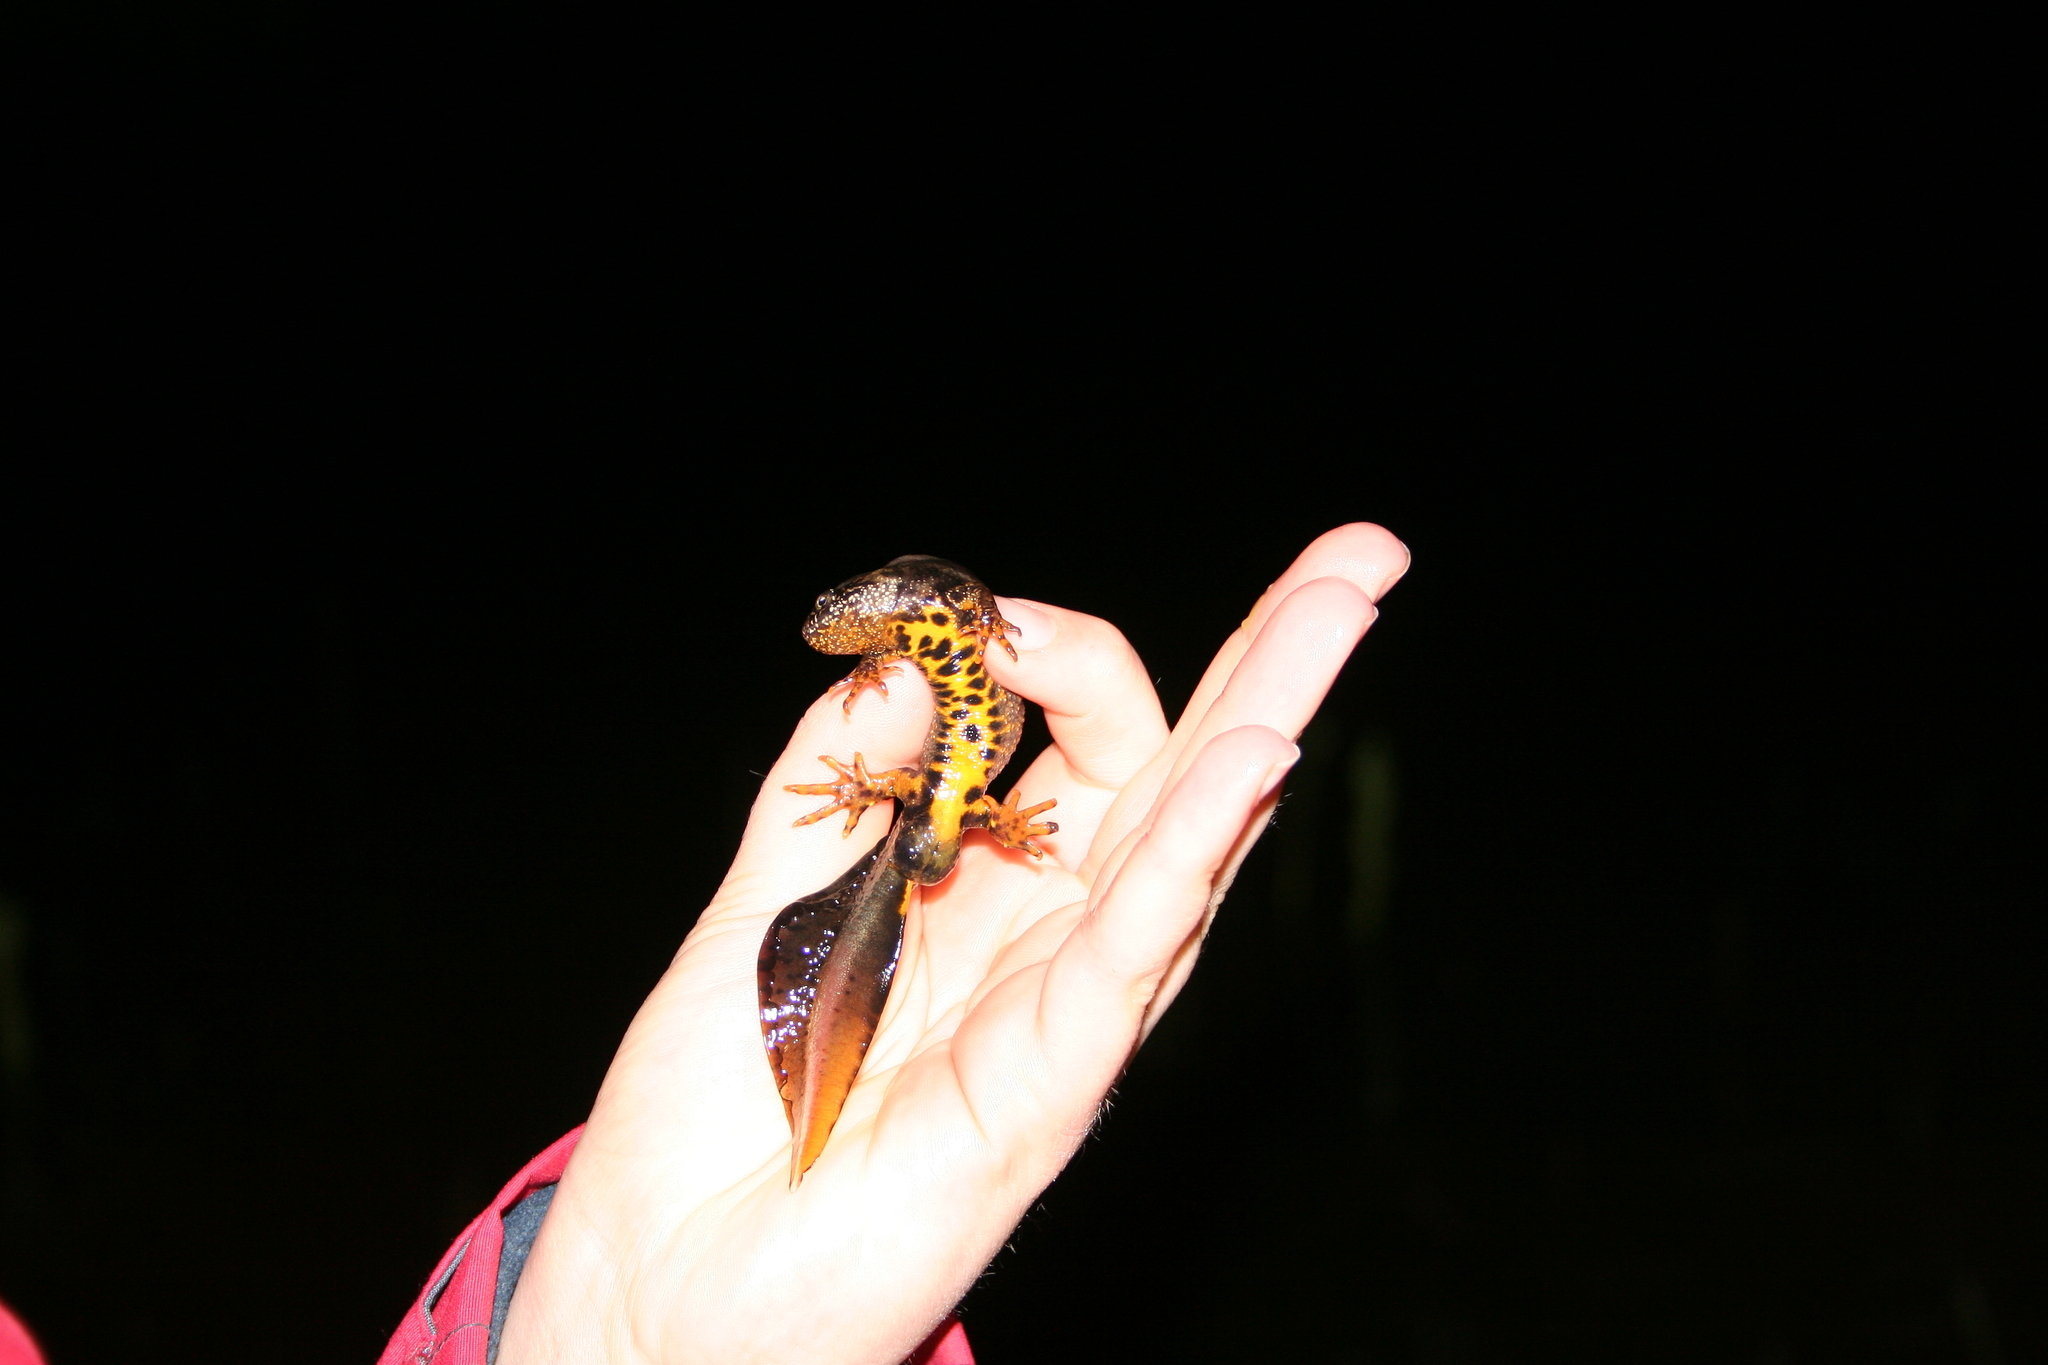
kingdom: Animalia
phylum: Chordata
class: Amphibia
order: Caudata
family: Salamandridae
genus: Triturus
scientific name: Triturus cristatus
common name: Crested newt
